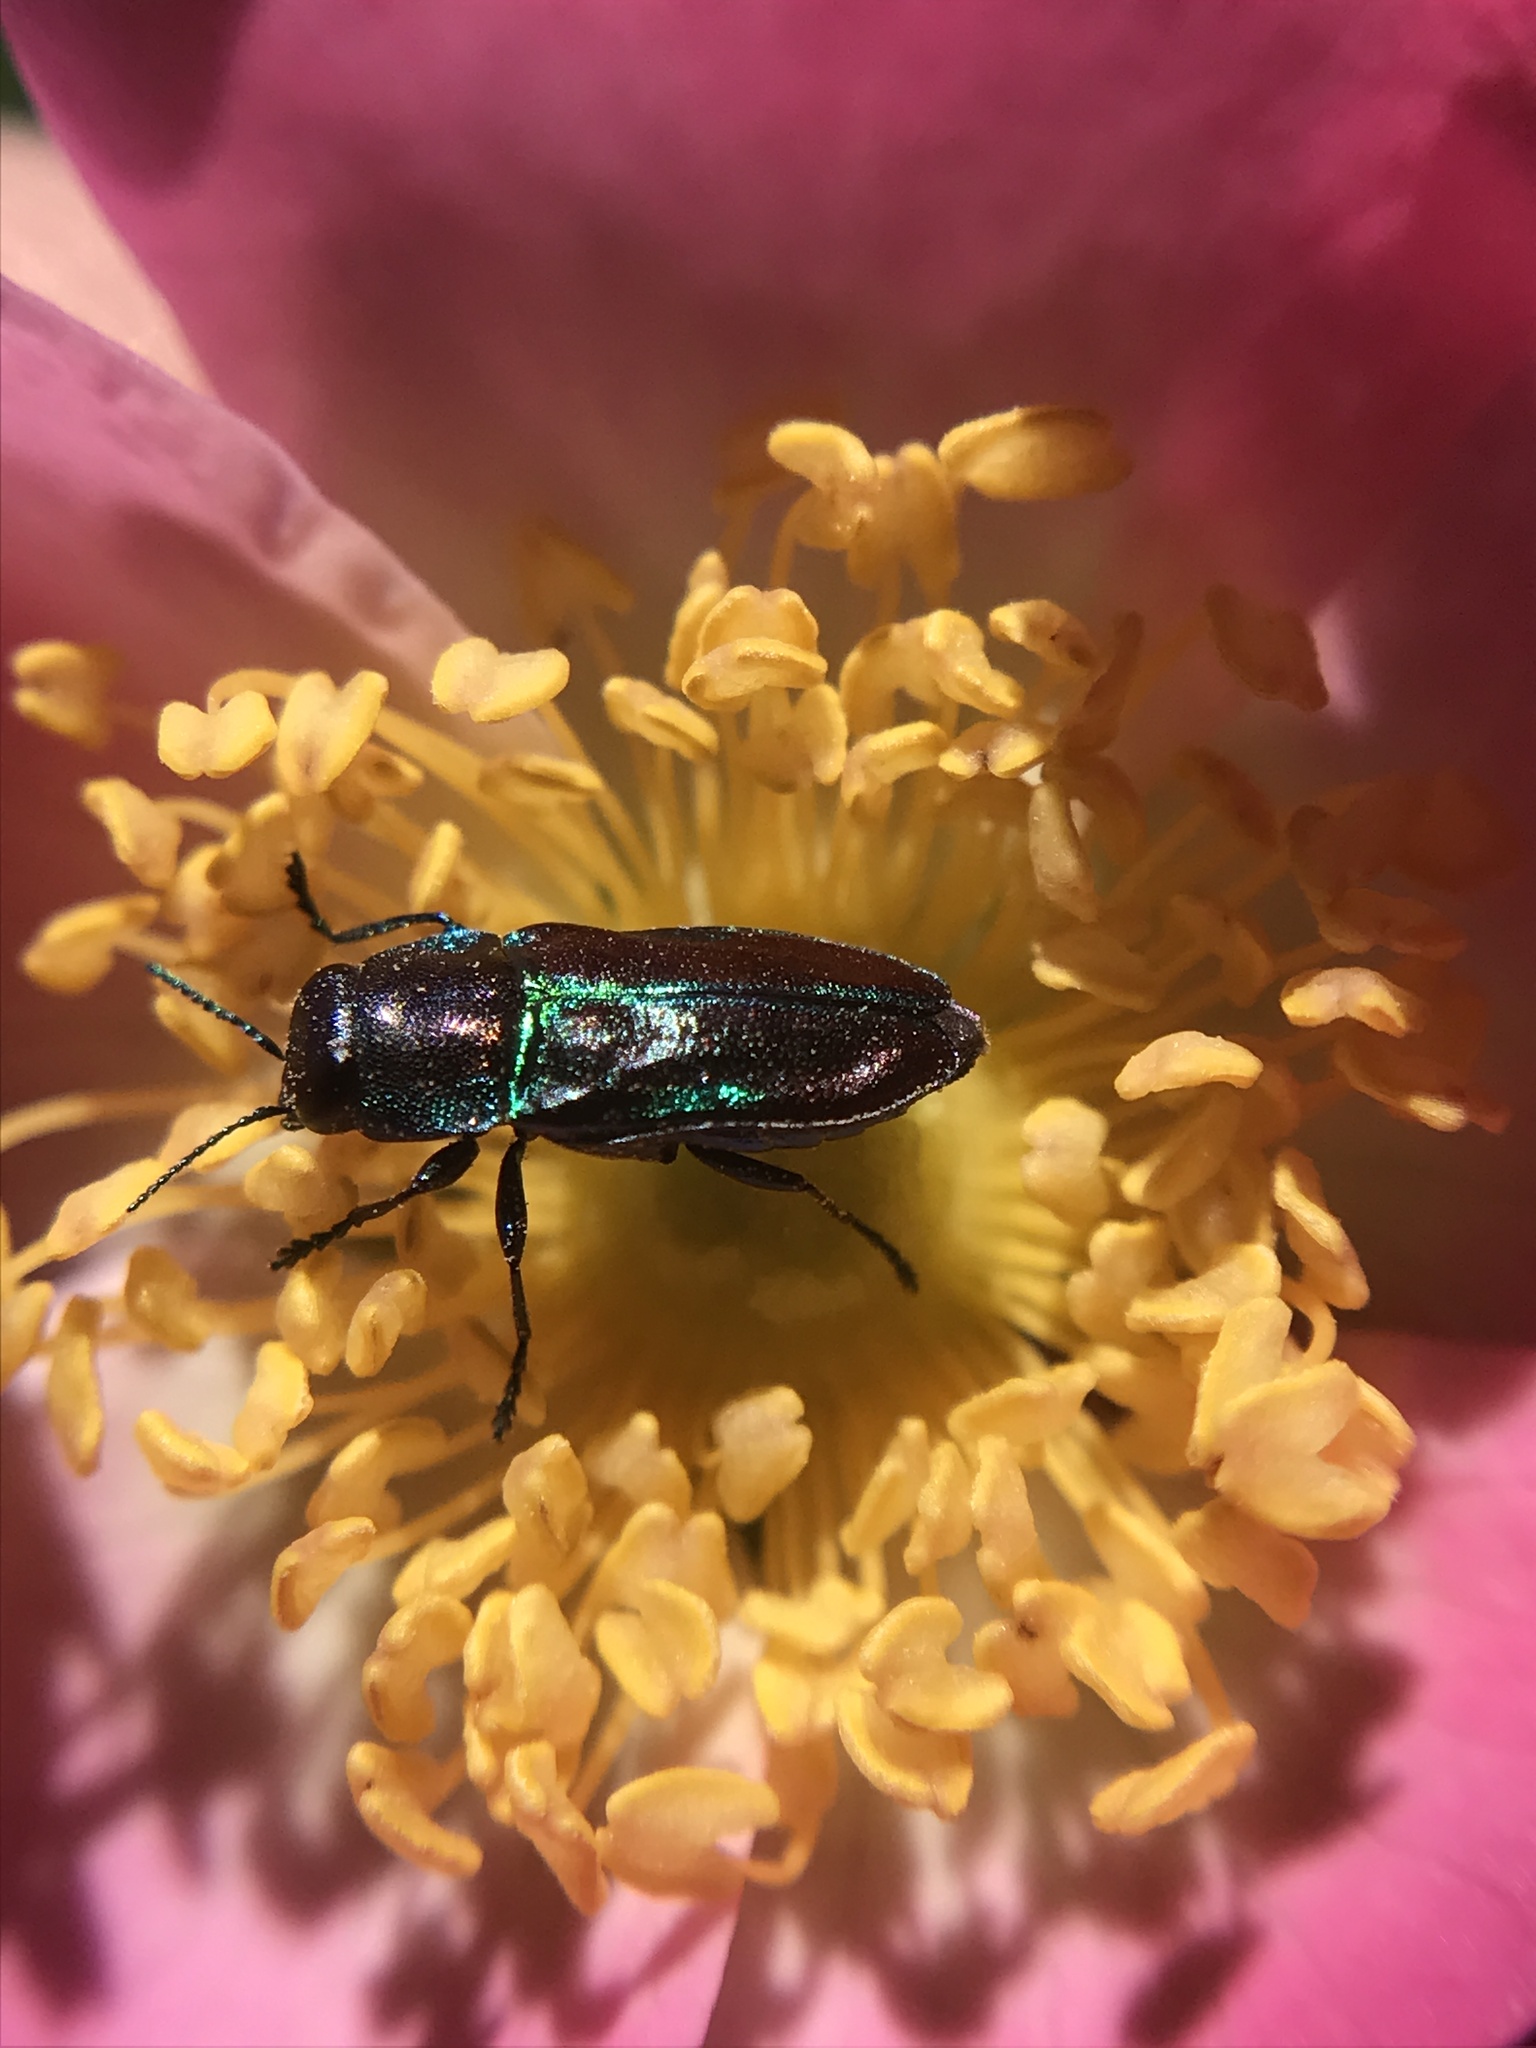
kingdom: Animalia
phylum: Arthropoda
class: Insecta
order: Coleoptera
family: Buprestidae
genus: Bilyaxia
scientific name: Bilyaxia concinna
